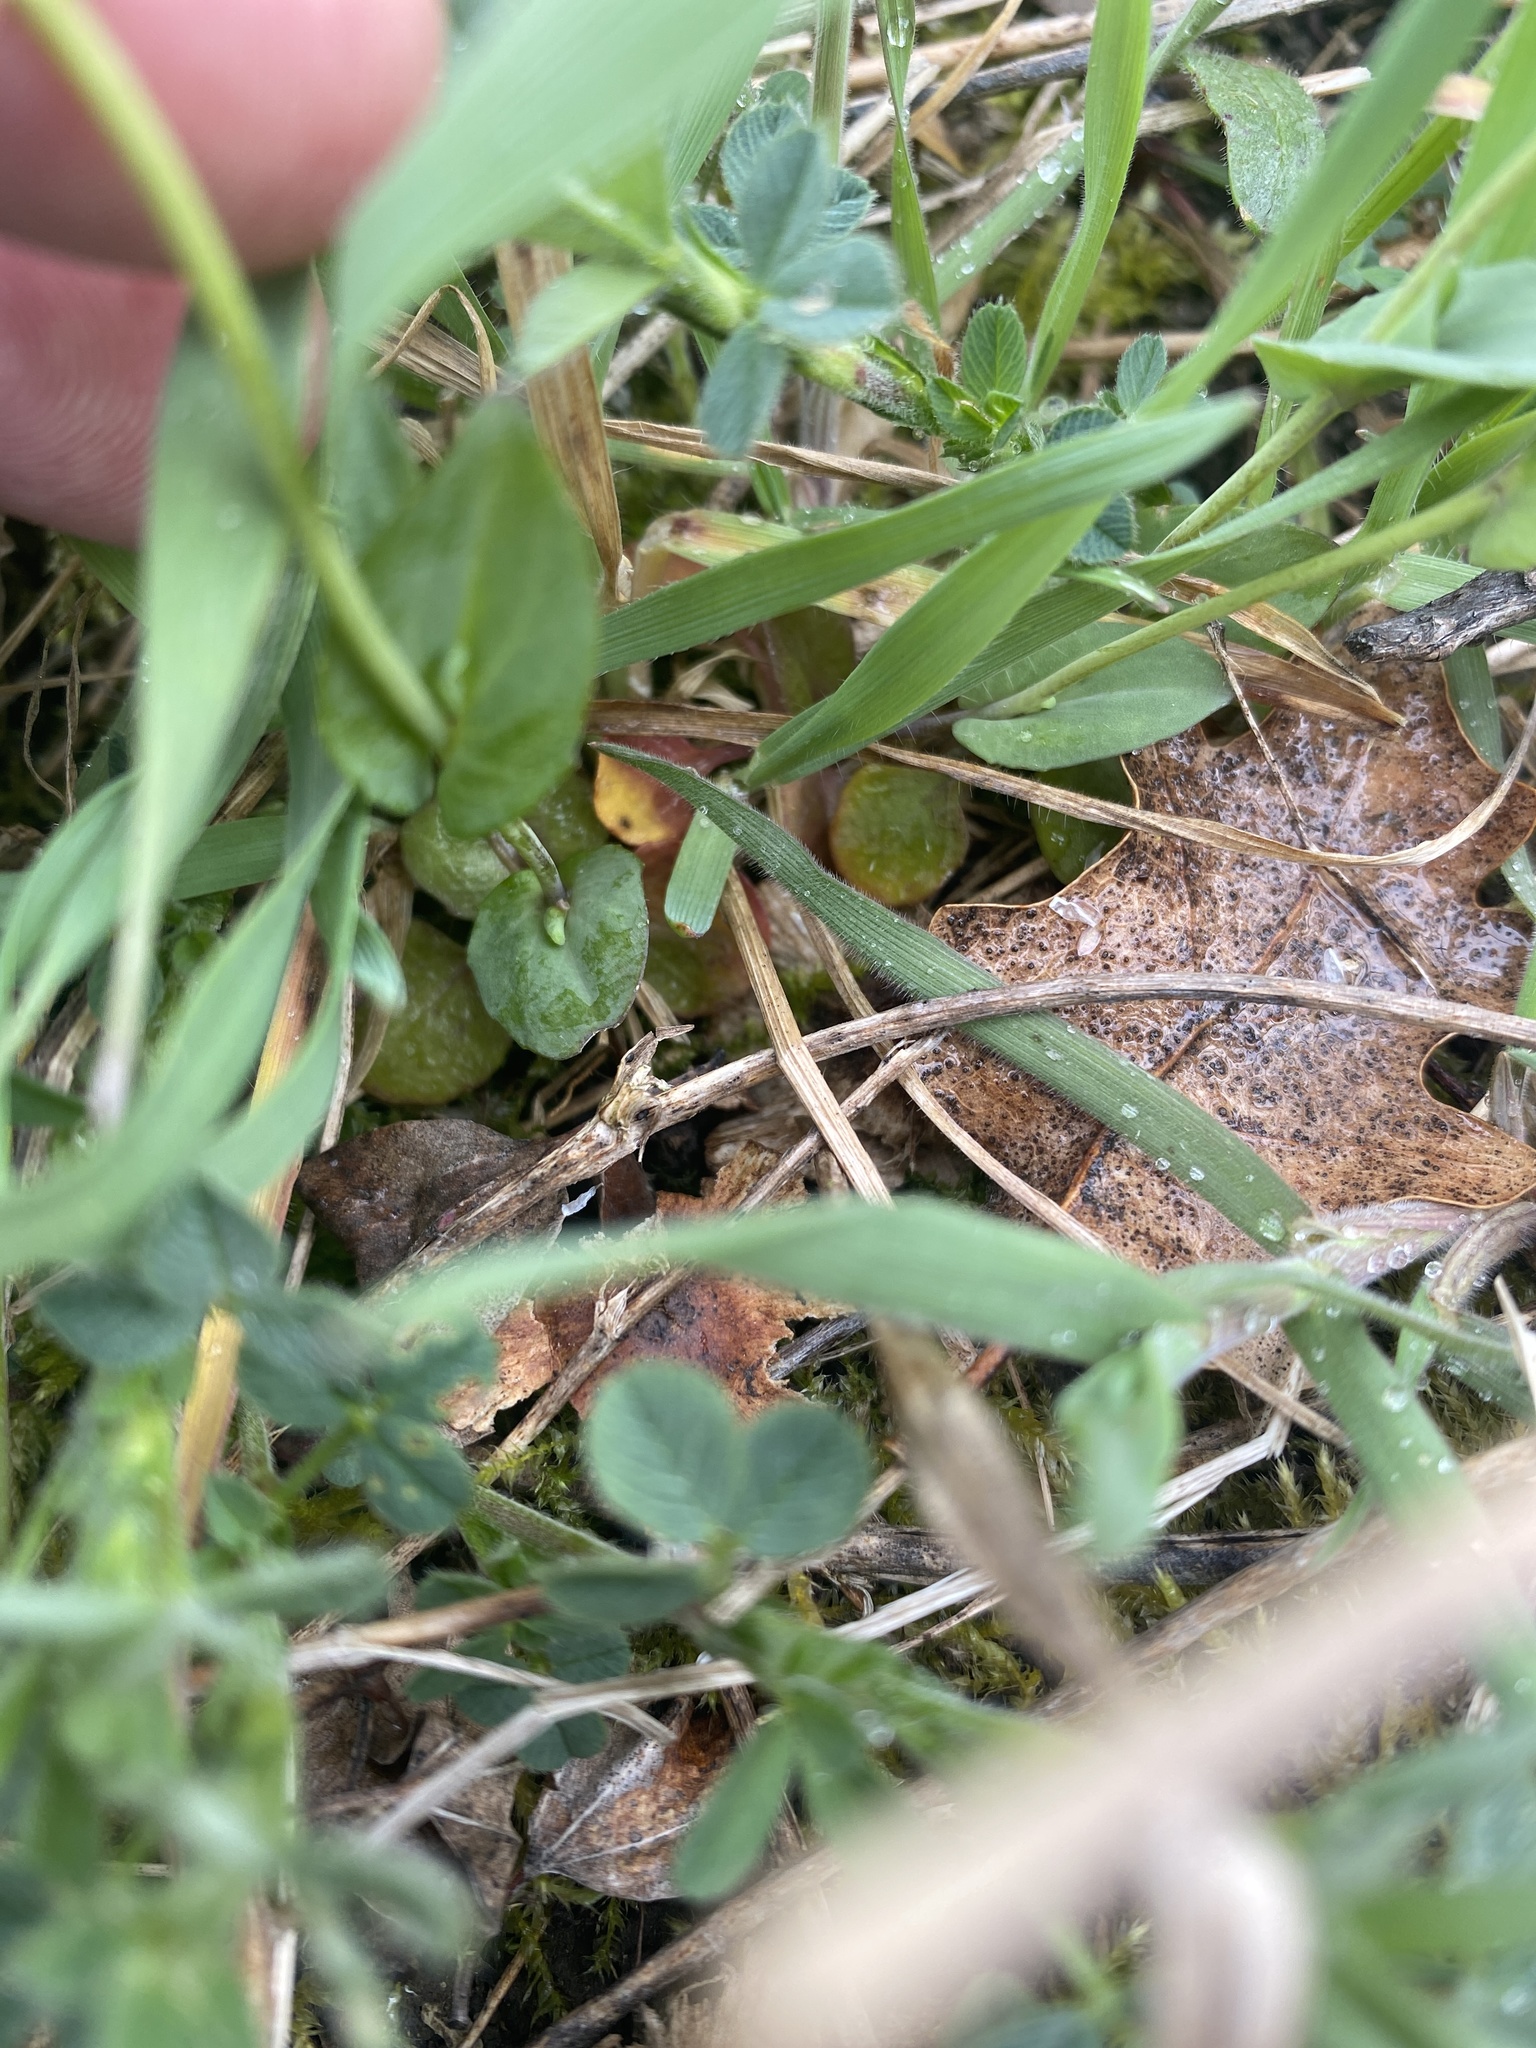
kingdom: Plantae
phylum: Tracheophyta
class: Magnoliopsida
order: Brassicales
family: Brassicaceae
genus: Noccaea
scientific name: Noccaea perfoliata
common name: Perfoliate pennycress
